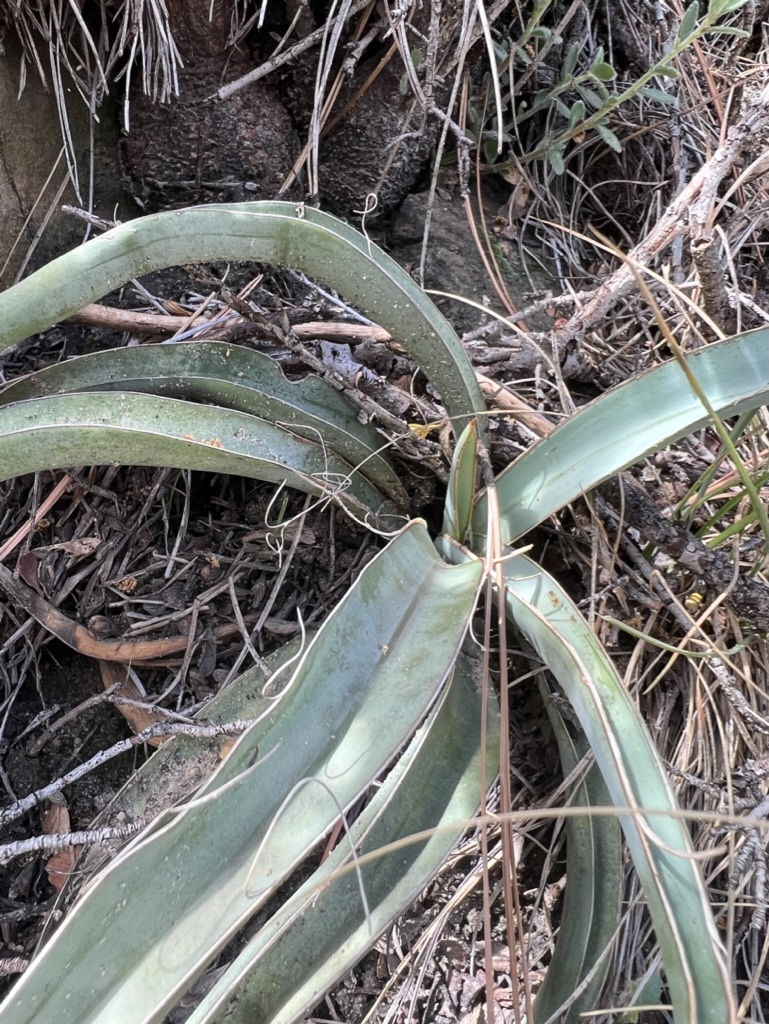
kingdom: Plantae
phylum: Tracheophyta
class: Liliopsida
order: Asparagales
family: Asparagaceae
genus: Yucca
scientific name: Yucca baccata
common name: Banana yucca
